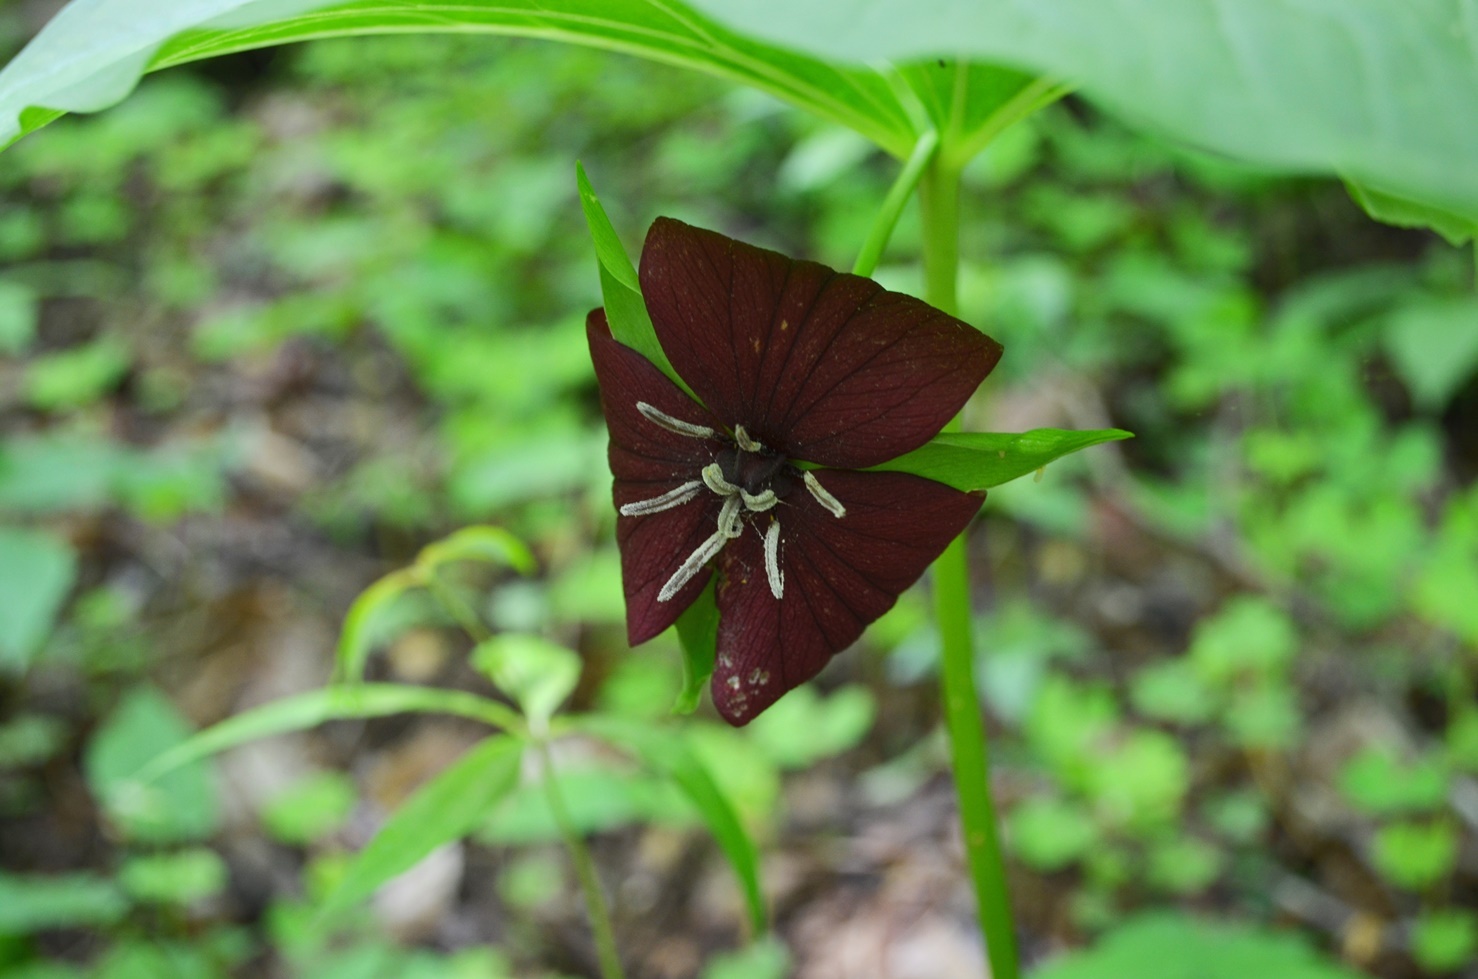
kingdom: Plantae
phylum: Tracheophyta
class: Liliopsida
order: Liliales
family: Melanthiaceae
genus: Trillium
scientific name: Trillium vaseyi
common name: Sweet trillium
